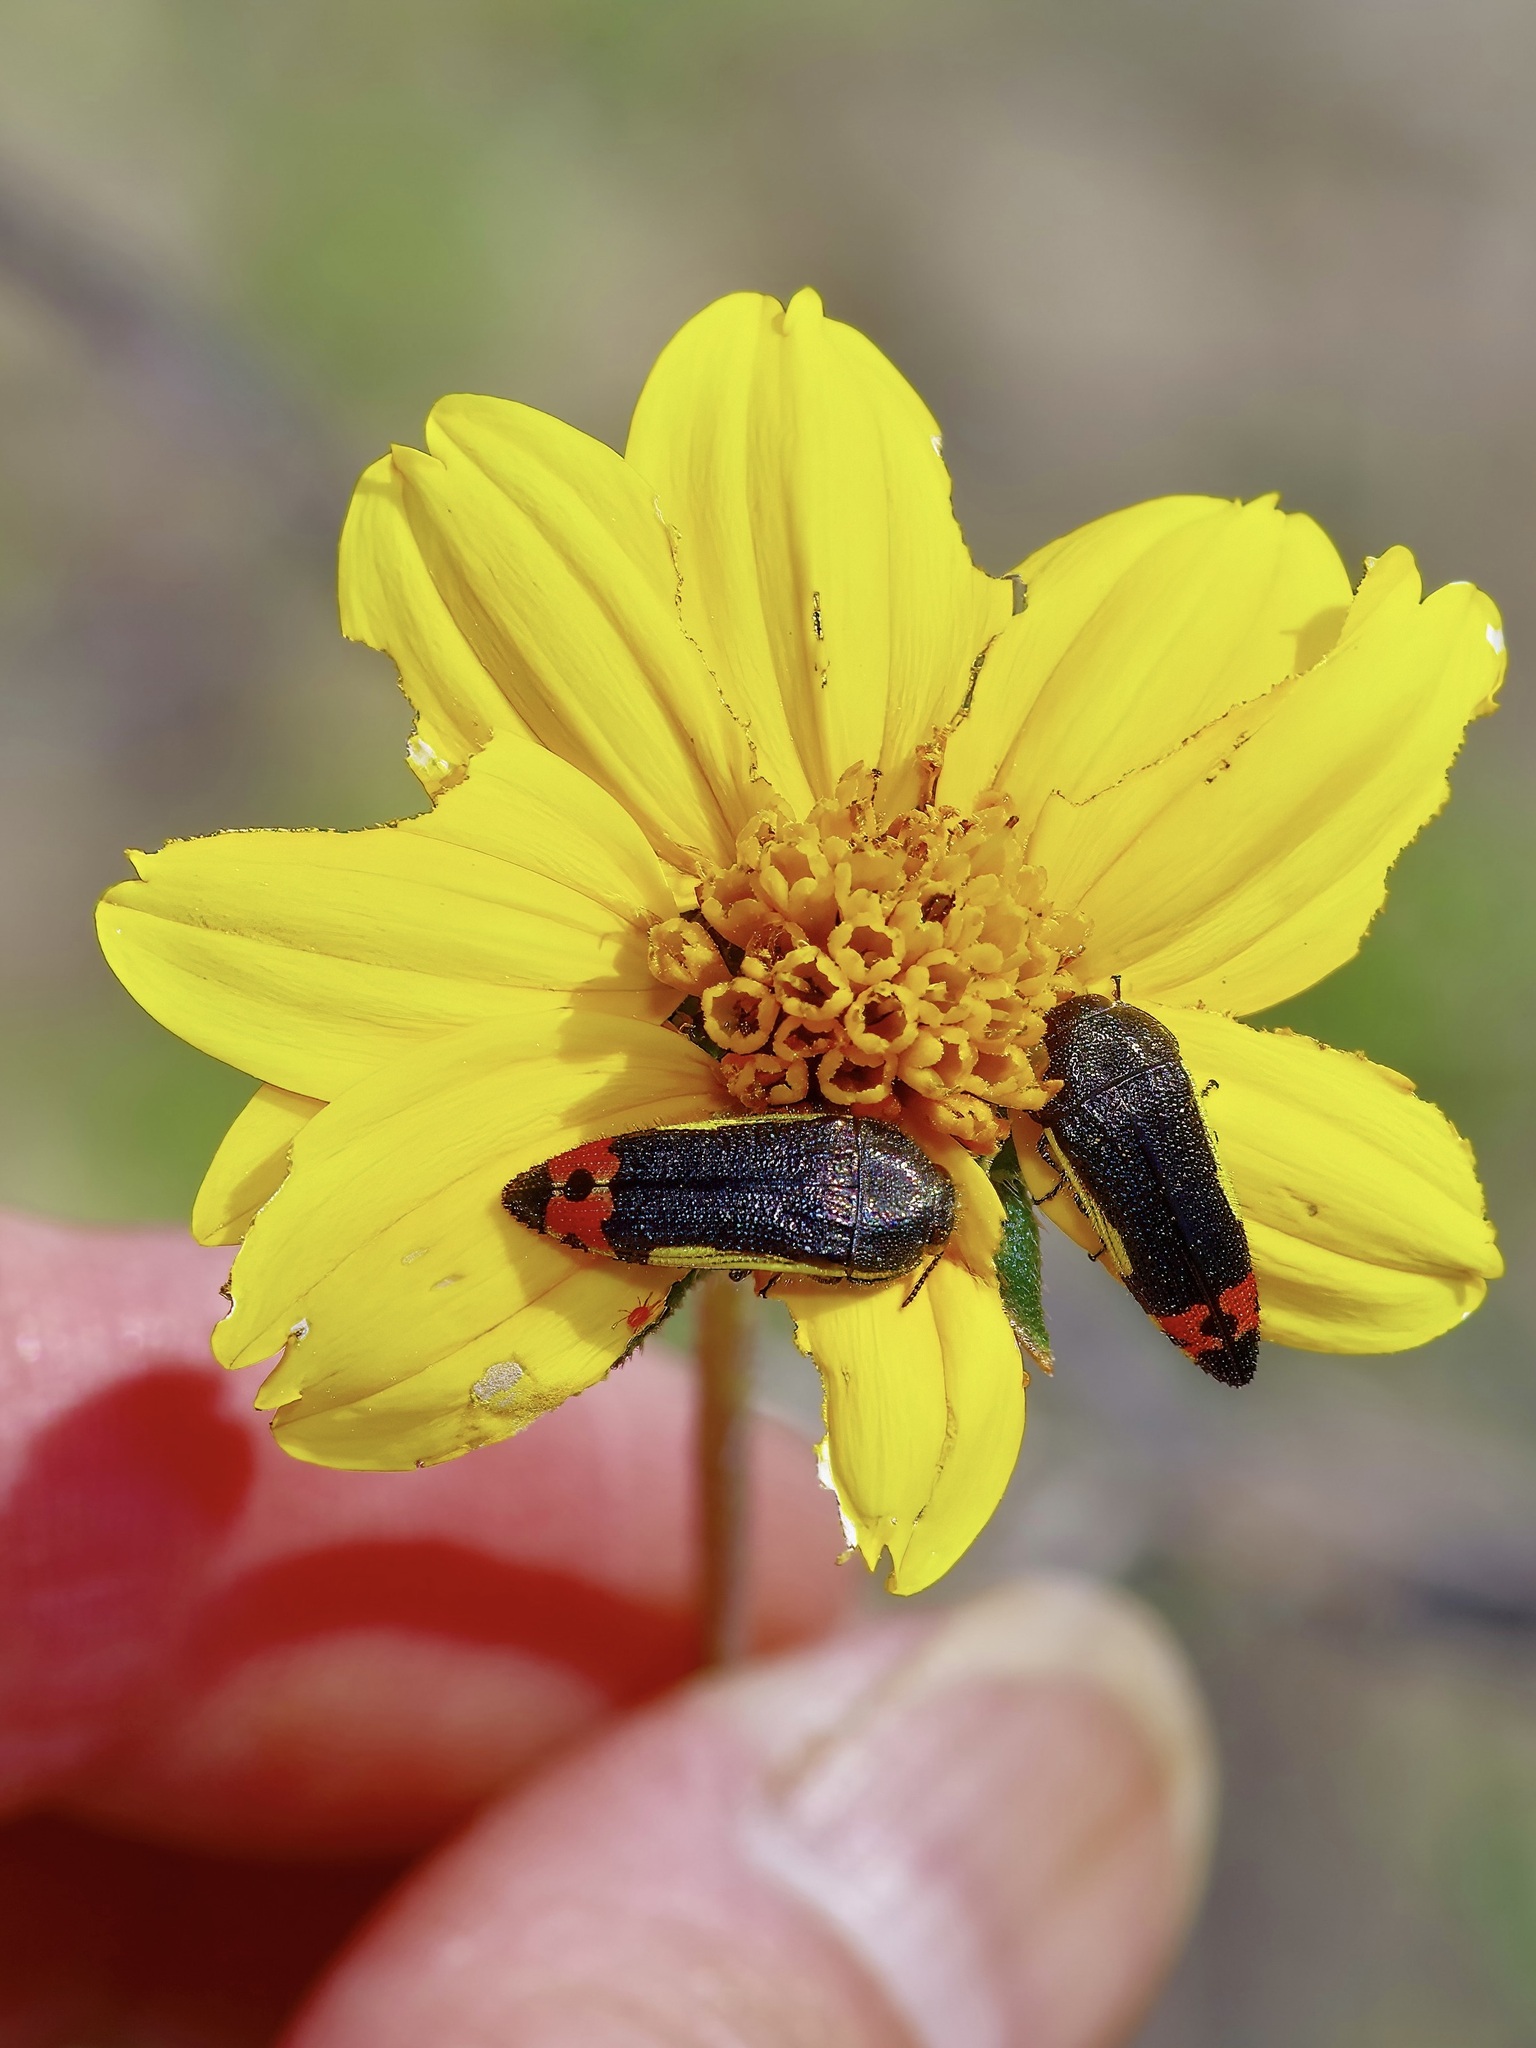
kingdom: Animalia
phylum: Arthropoda
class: Insecta
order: Coleoptera
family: Buprestidae
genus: Acmaeodera
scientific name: Acmaeodera flavomarginata
